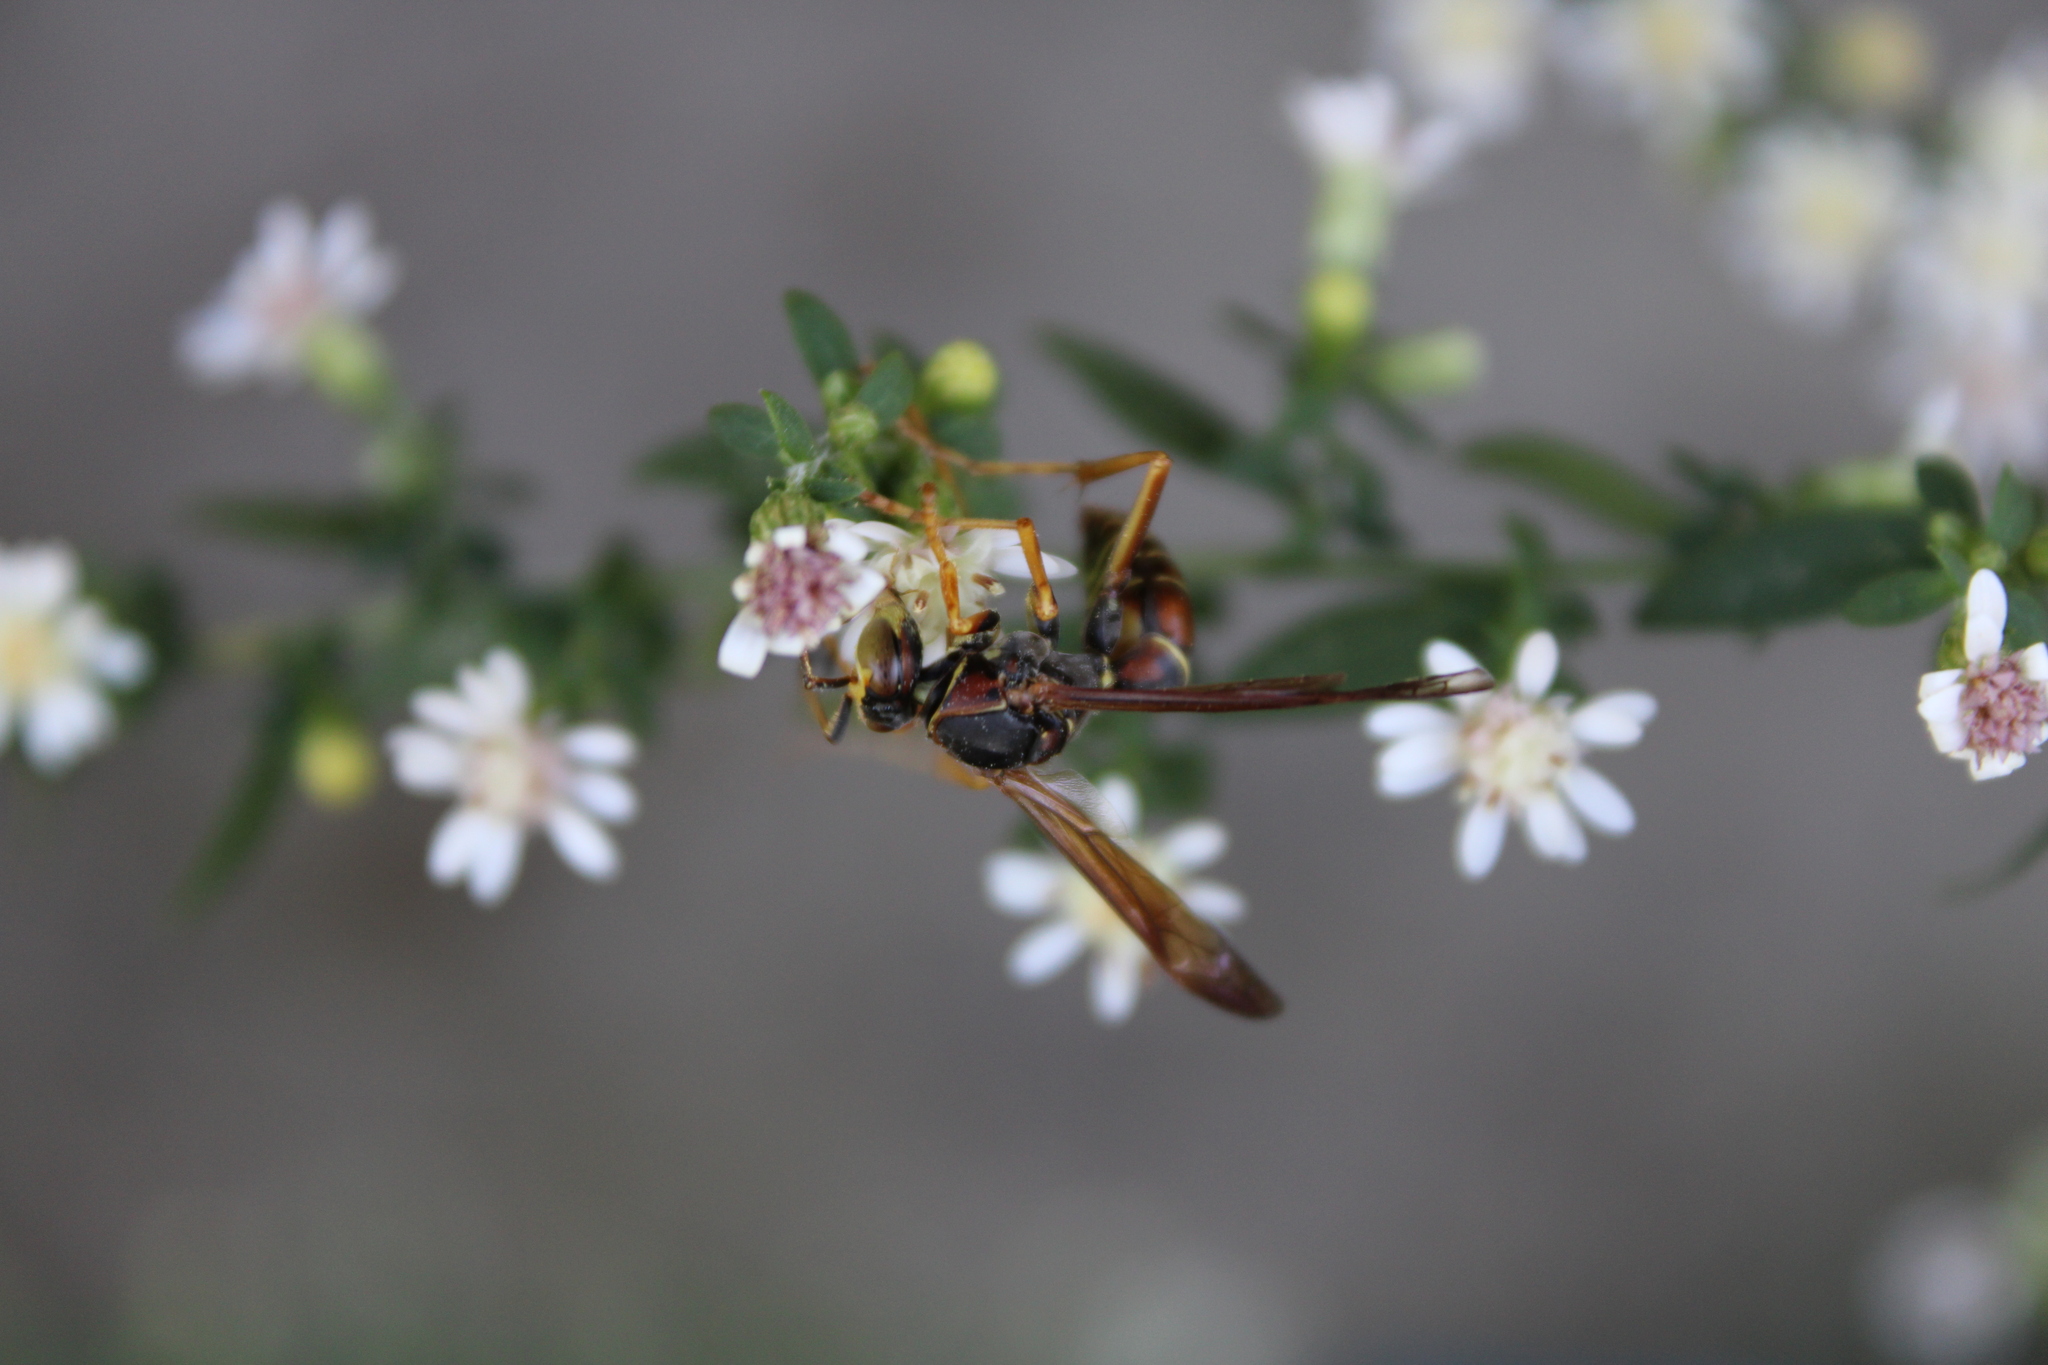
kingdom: Animalia
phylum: Arthropoda
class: Insecta
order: Hymenoptera
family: Eumenidae
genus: Polistes
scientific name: Polistes fuscatus
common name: Dark paper wasp
